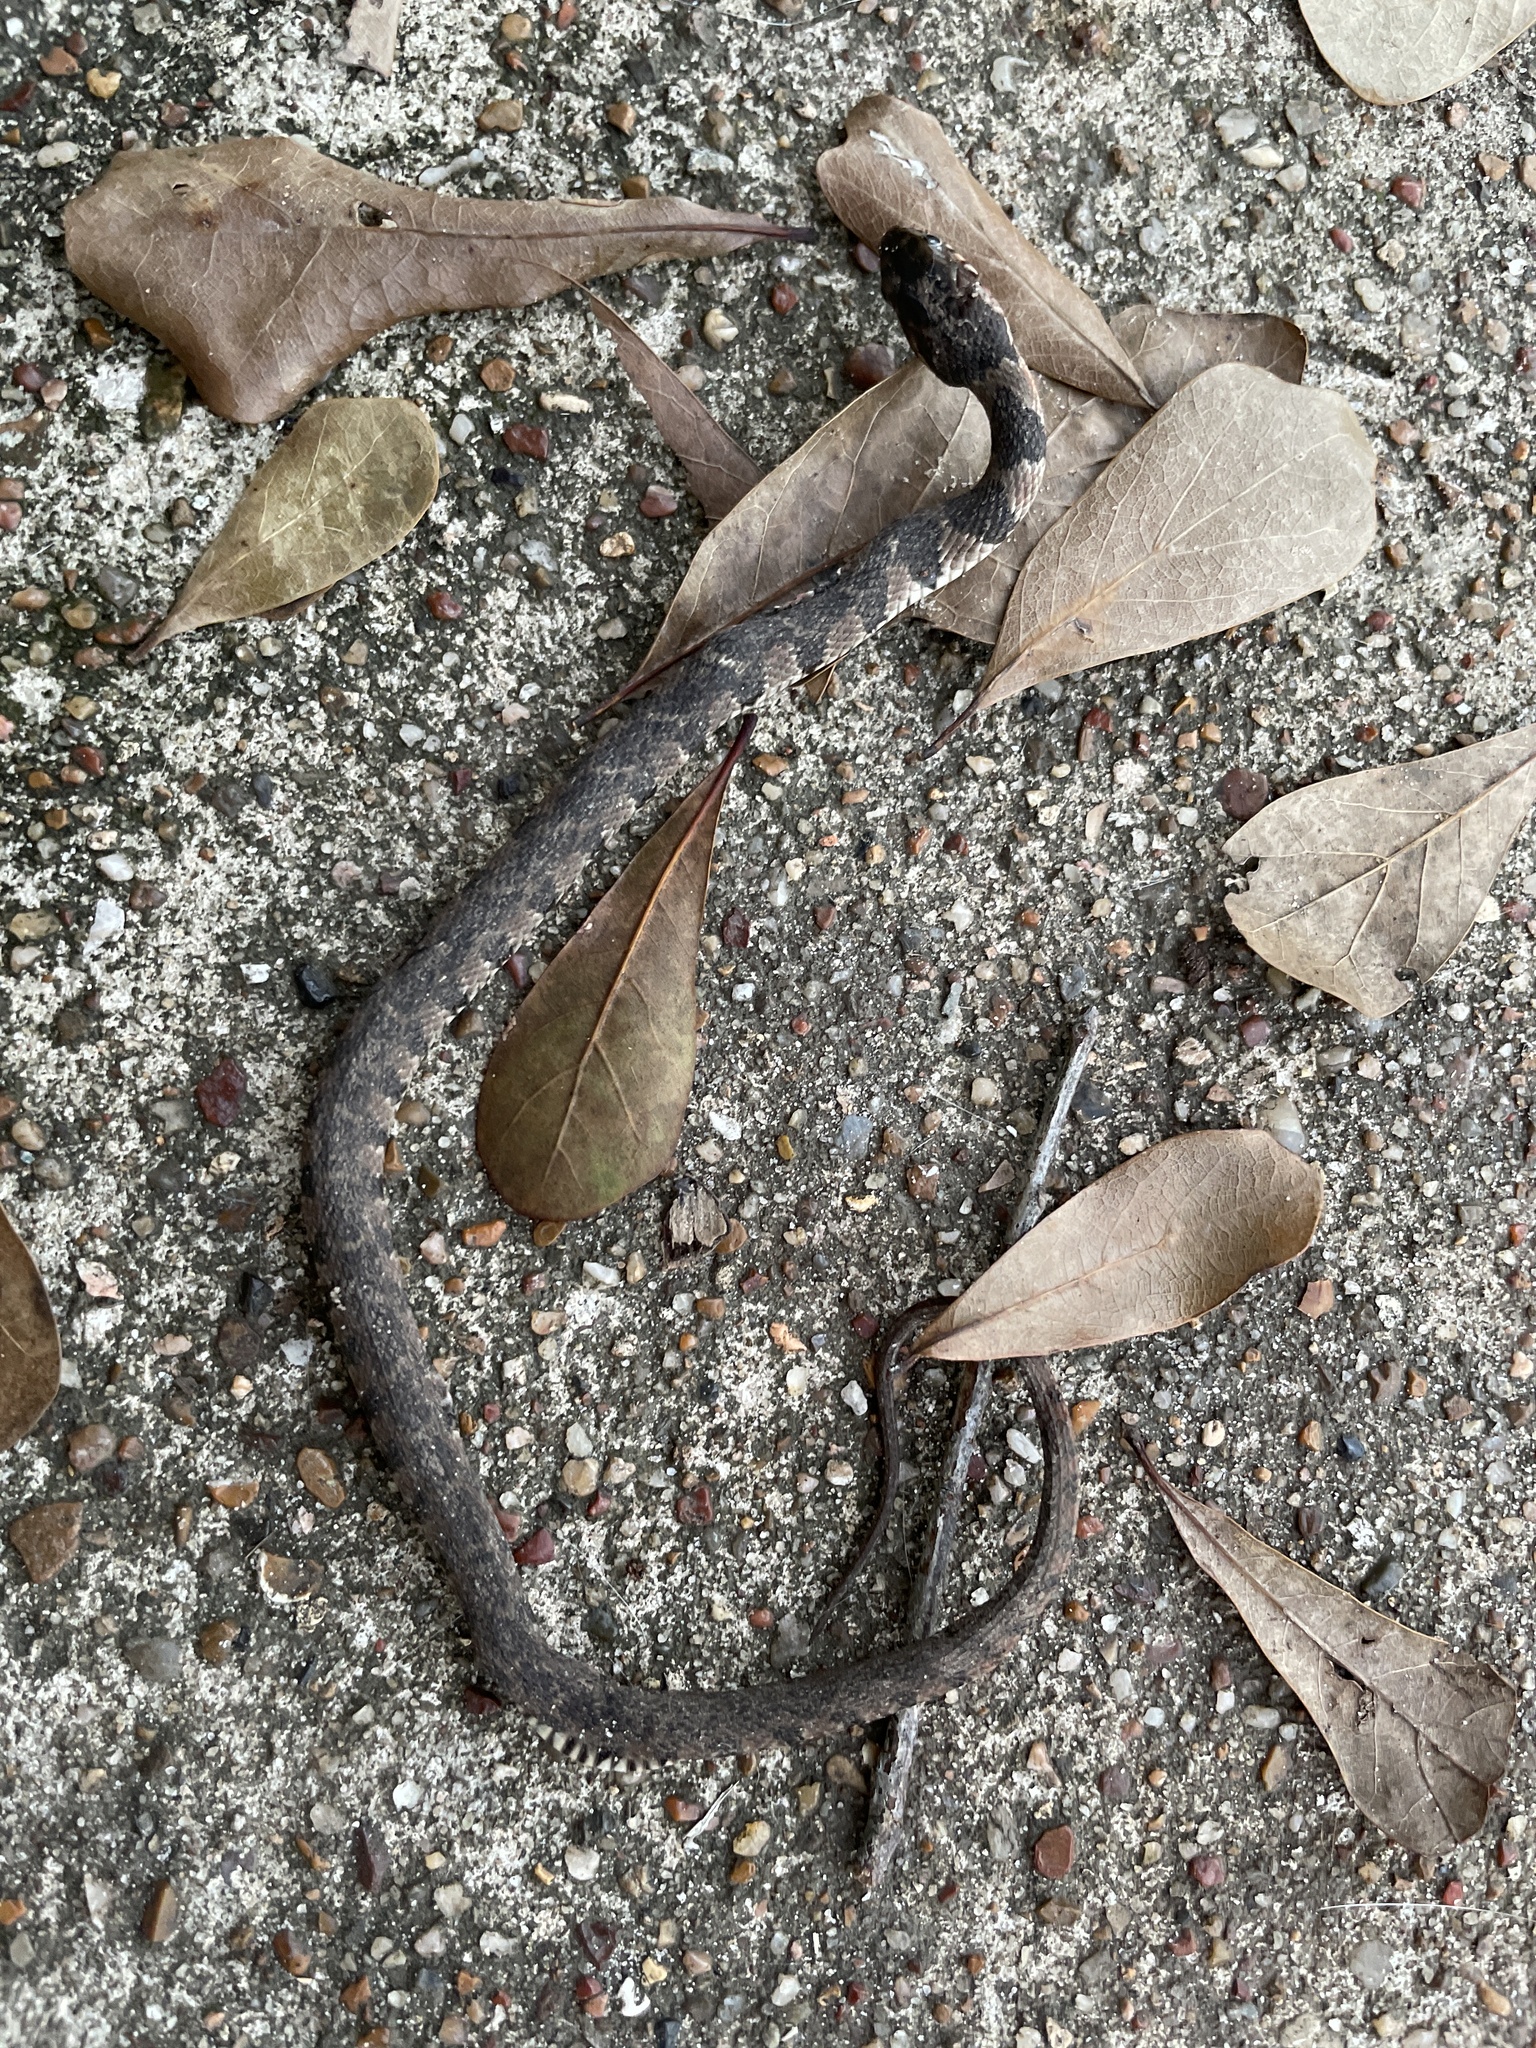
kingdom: Animalia
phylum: Chordata
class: Squamata
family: Colubridae
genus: Nerodia
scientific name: Nerodia erythrogaster
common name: Plainbelly water snake
